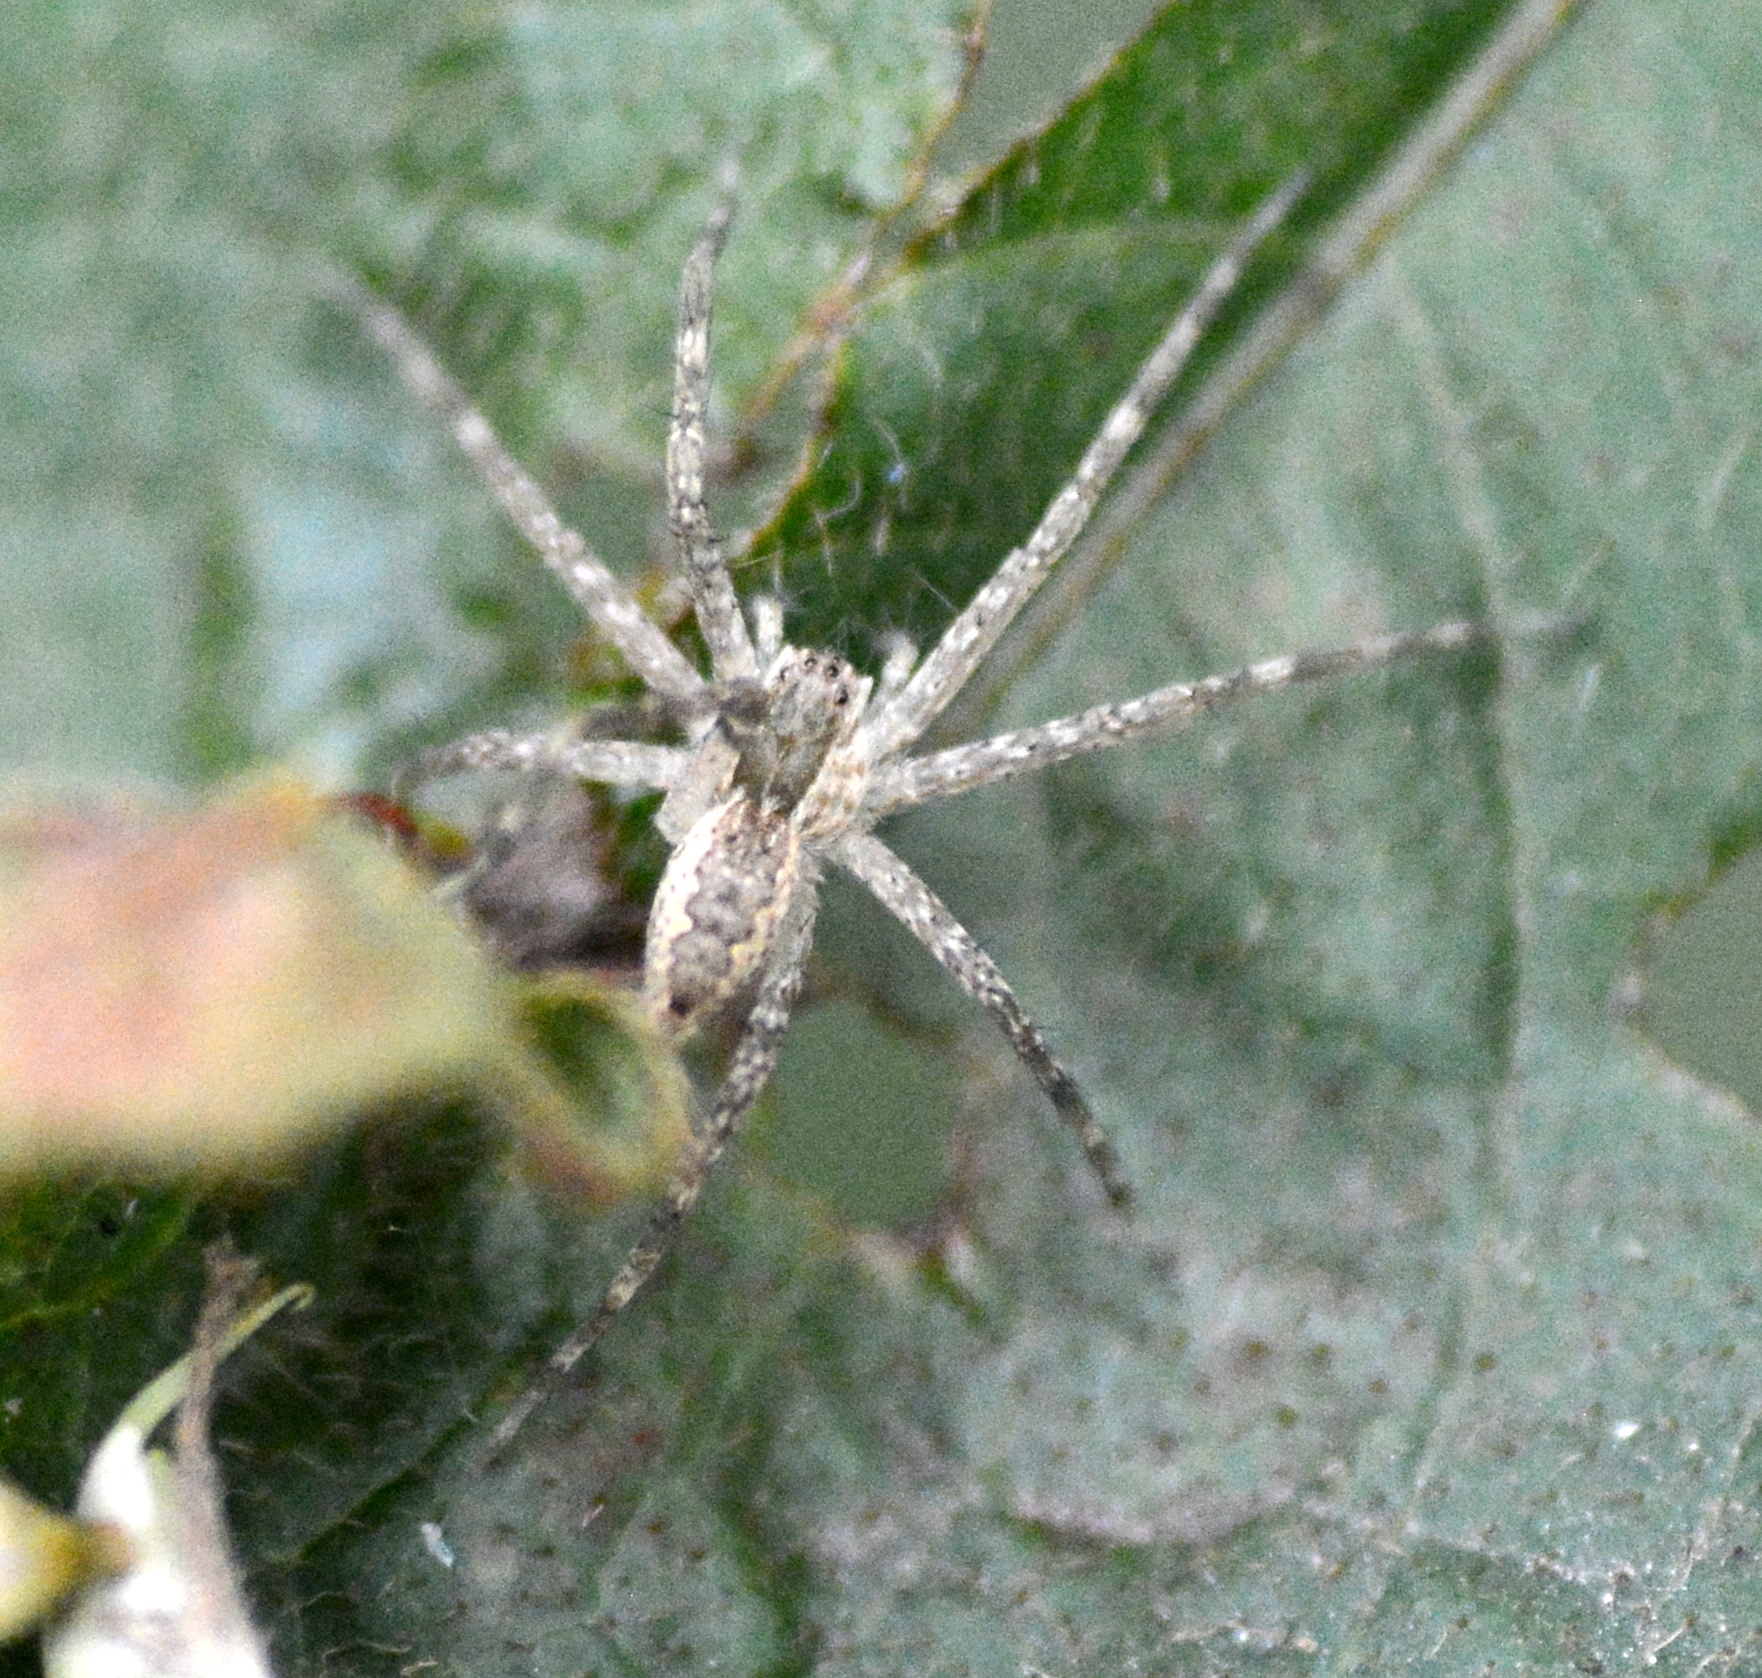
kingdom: Animalia
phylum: Arthropoda
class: Arachnida
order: Araneae
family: Pisauridae
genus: Pisaurina
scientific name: Pisaurina mira
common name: American nursery web spider
